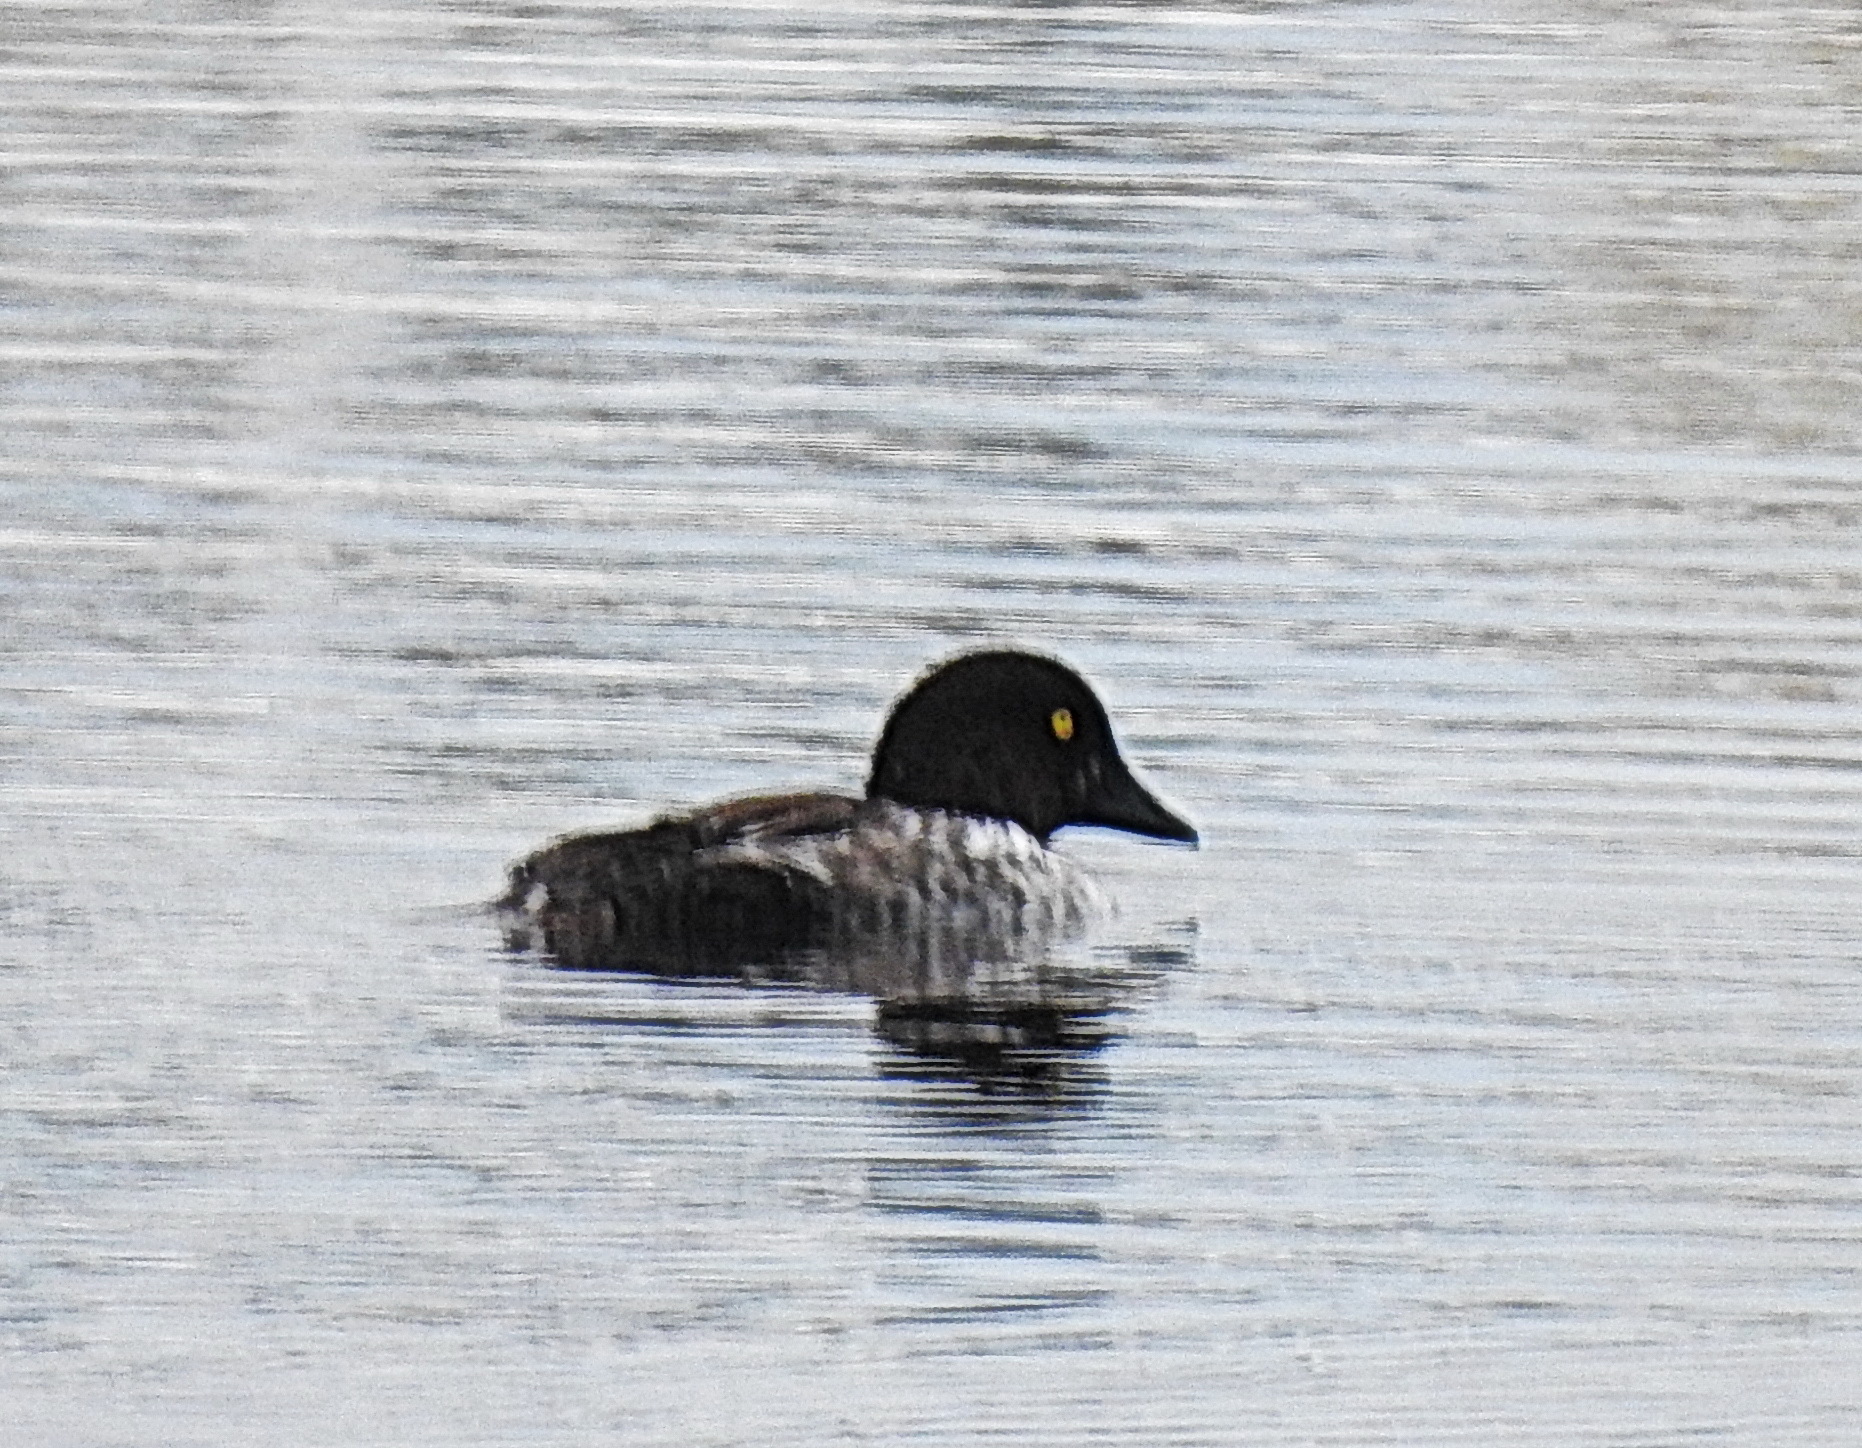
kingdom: Animalia
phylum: Chordata
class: Aves
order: Anseriformes
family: Anatidae
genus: Bucephala
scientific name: Bucephala clangula
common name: Common goldeneye
